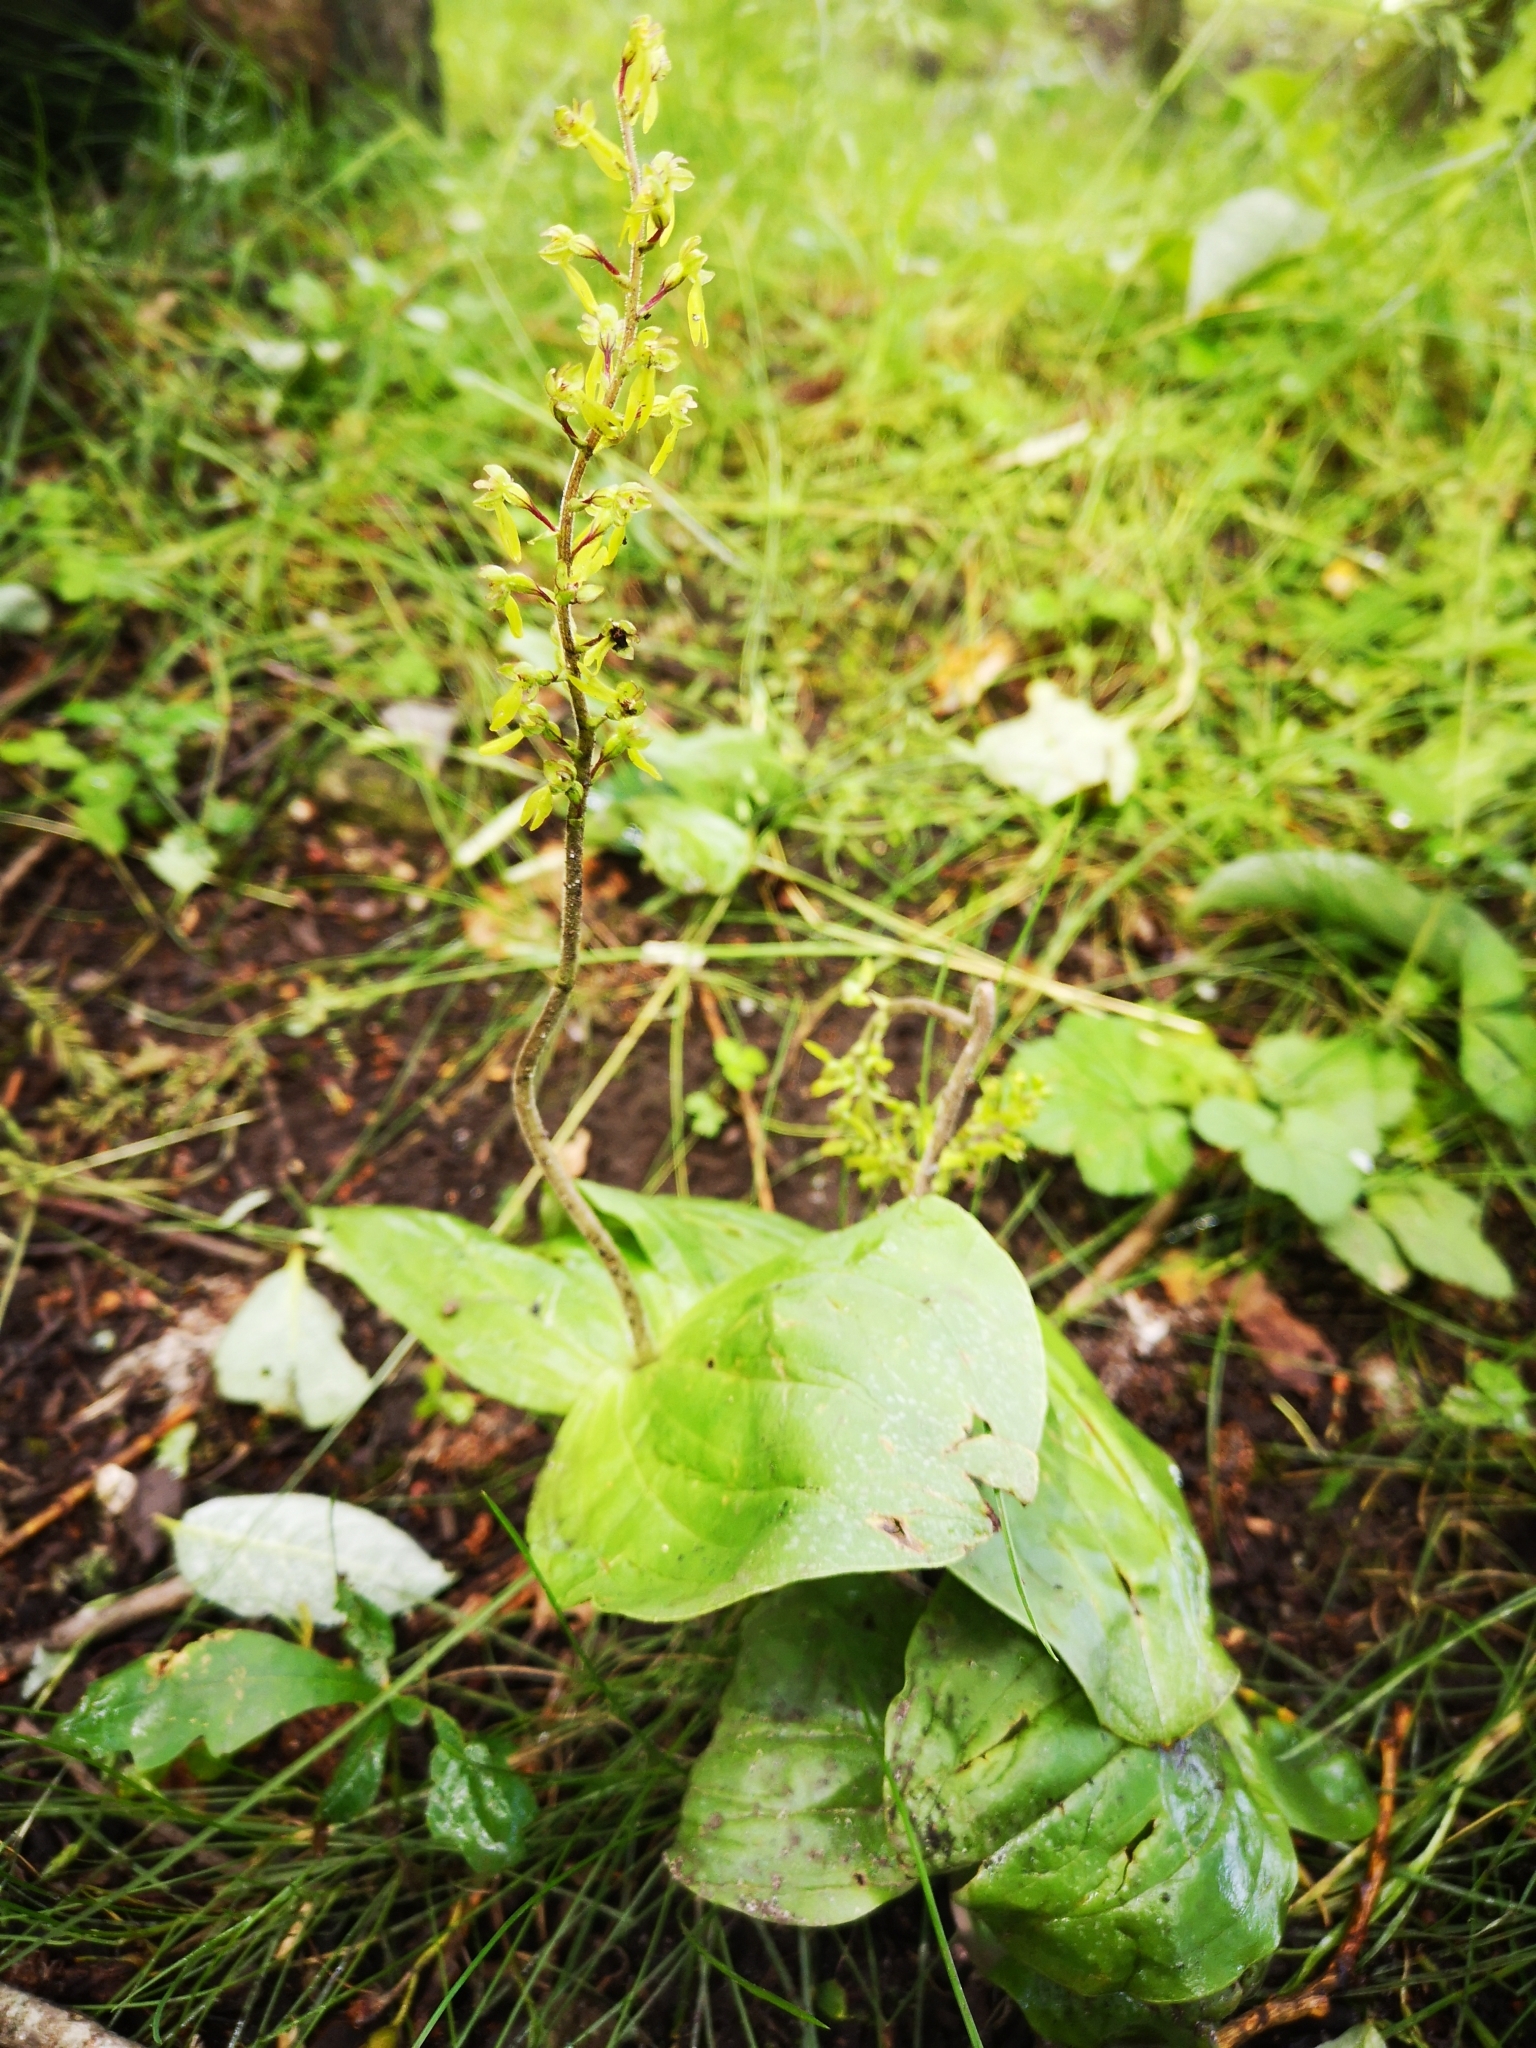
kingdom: Plantae
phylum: Tracheophyta
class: Liliopsida
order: Asparagales
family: Orchidaceae
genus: Neottia
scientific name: Neottia ovata
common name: Common twayblade
